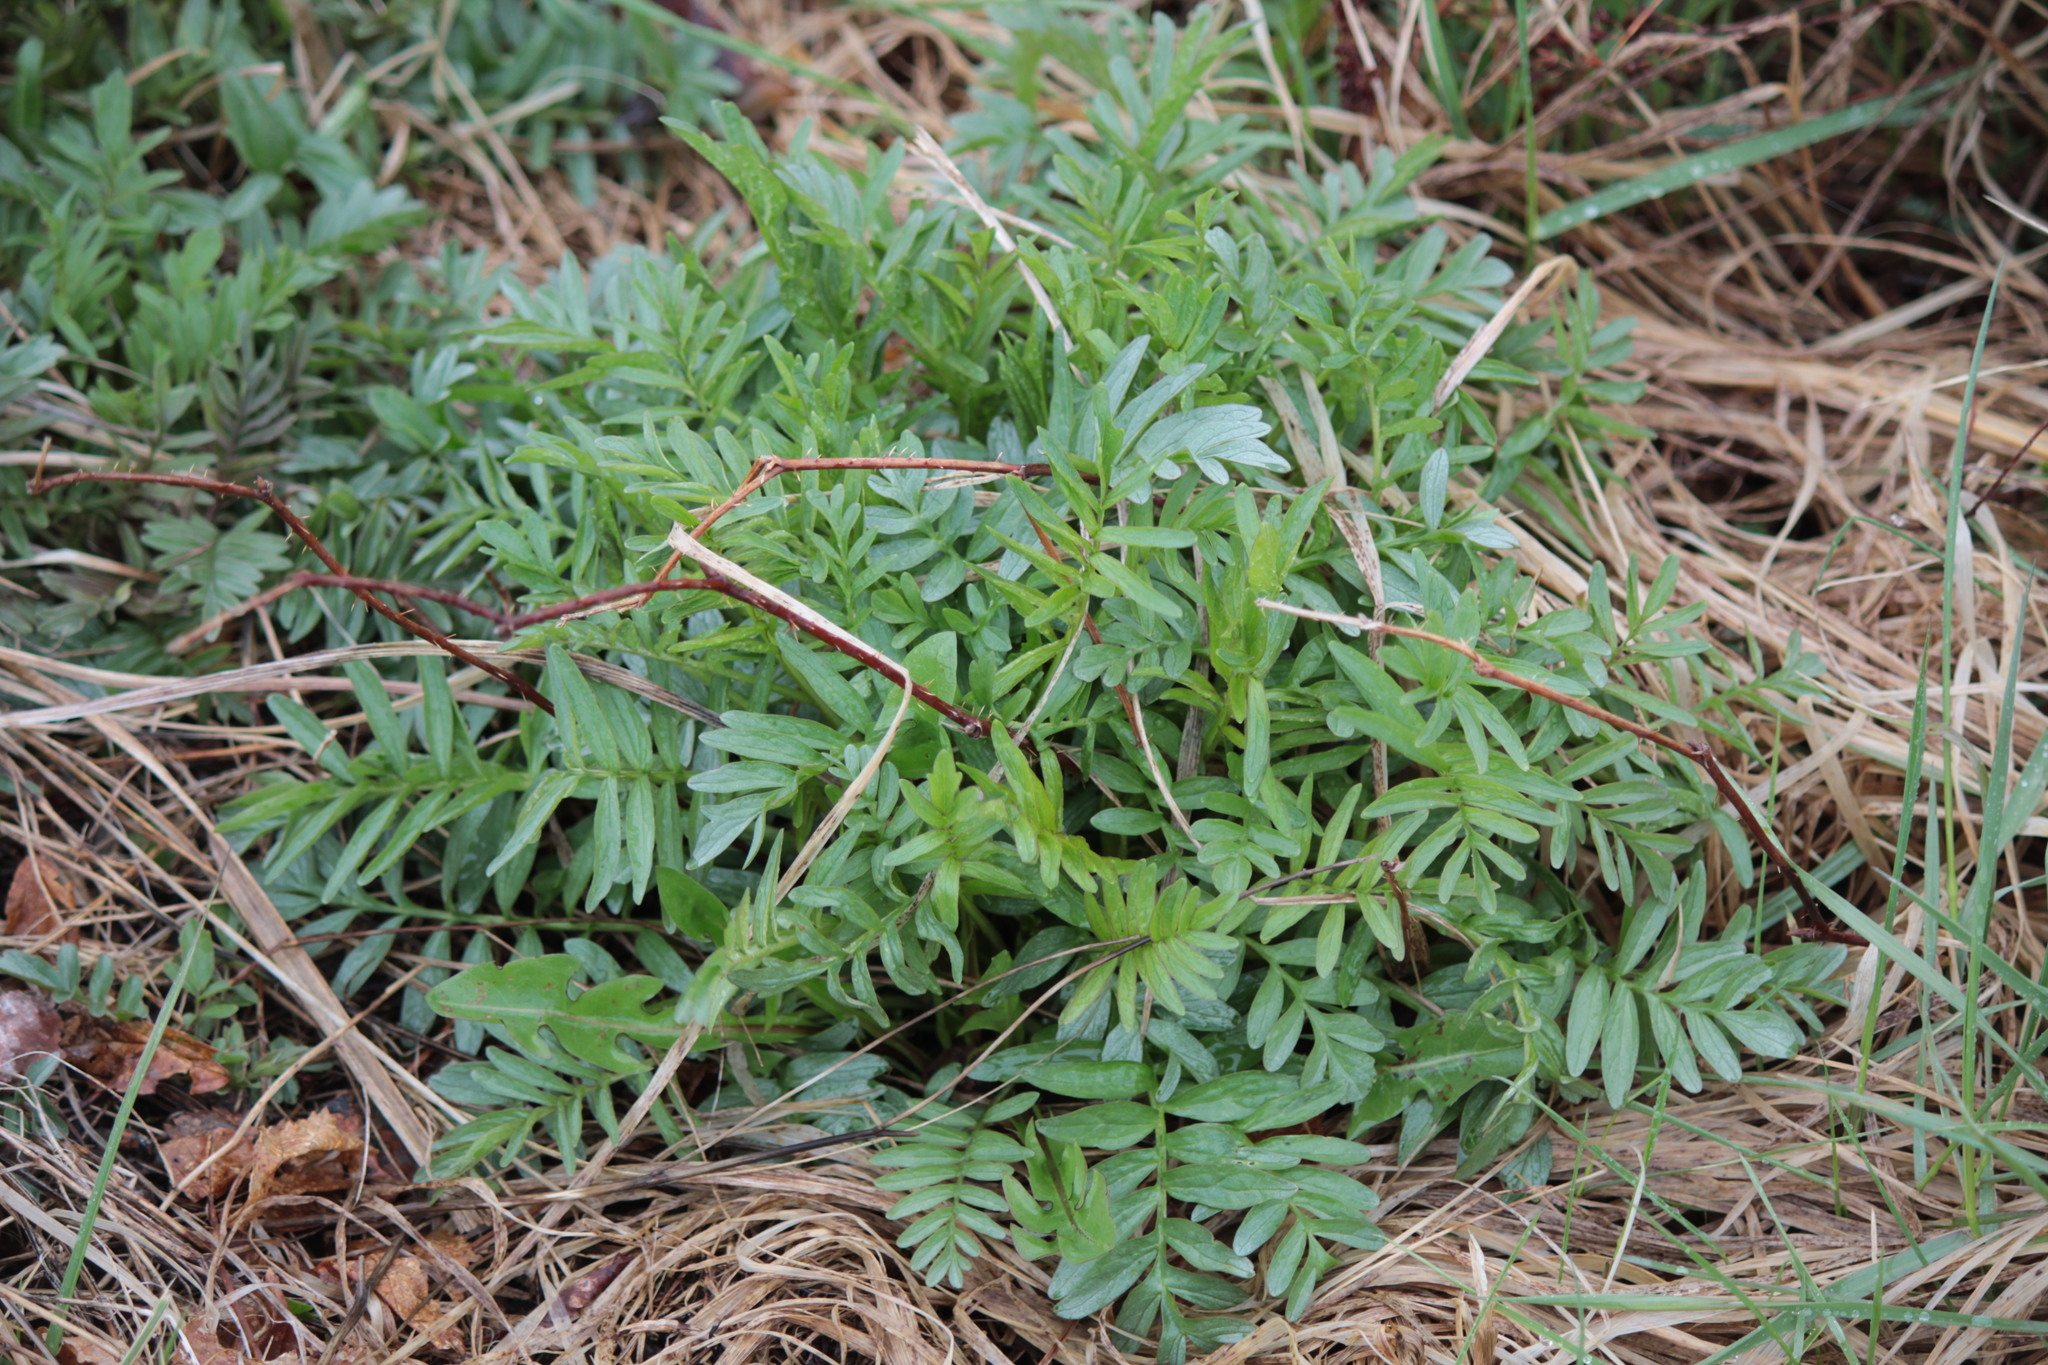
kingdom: Plantae
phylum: Tracheophyta
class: Magnoliopsida
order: Dipsacales
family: Caprifoliaceae
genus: Valeriana
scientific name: Valeriana officinalis
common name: Common valerian
